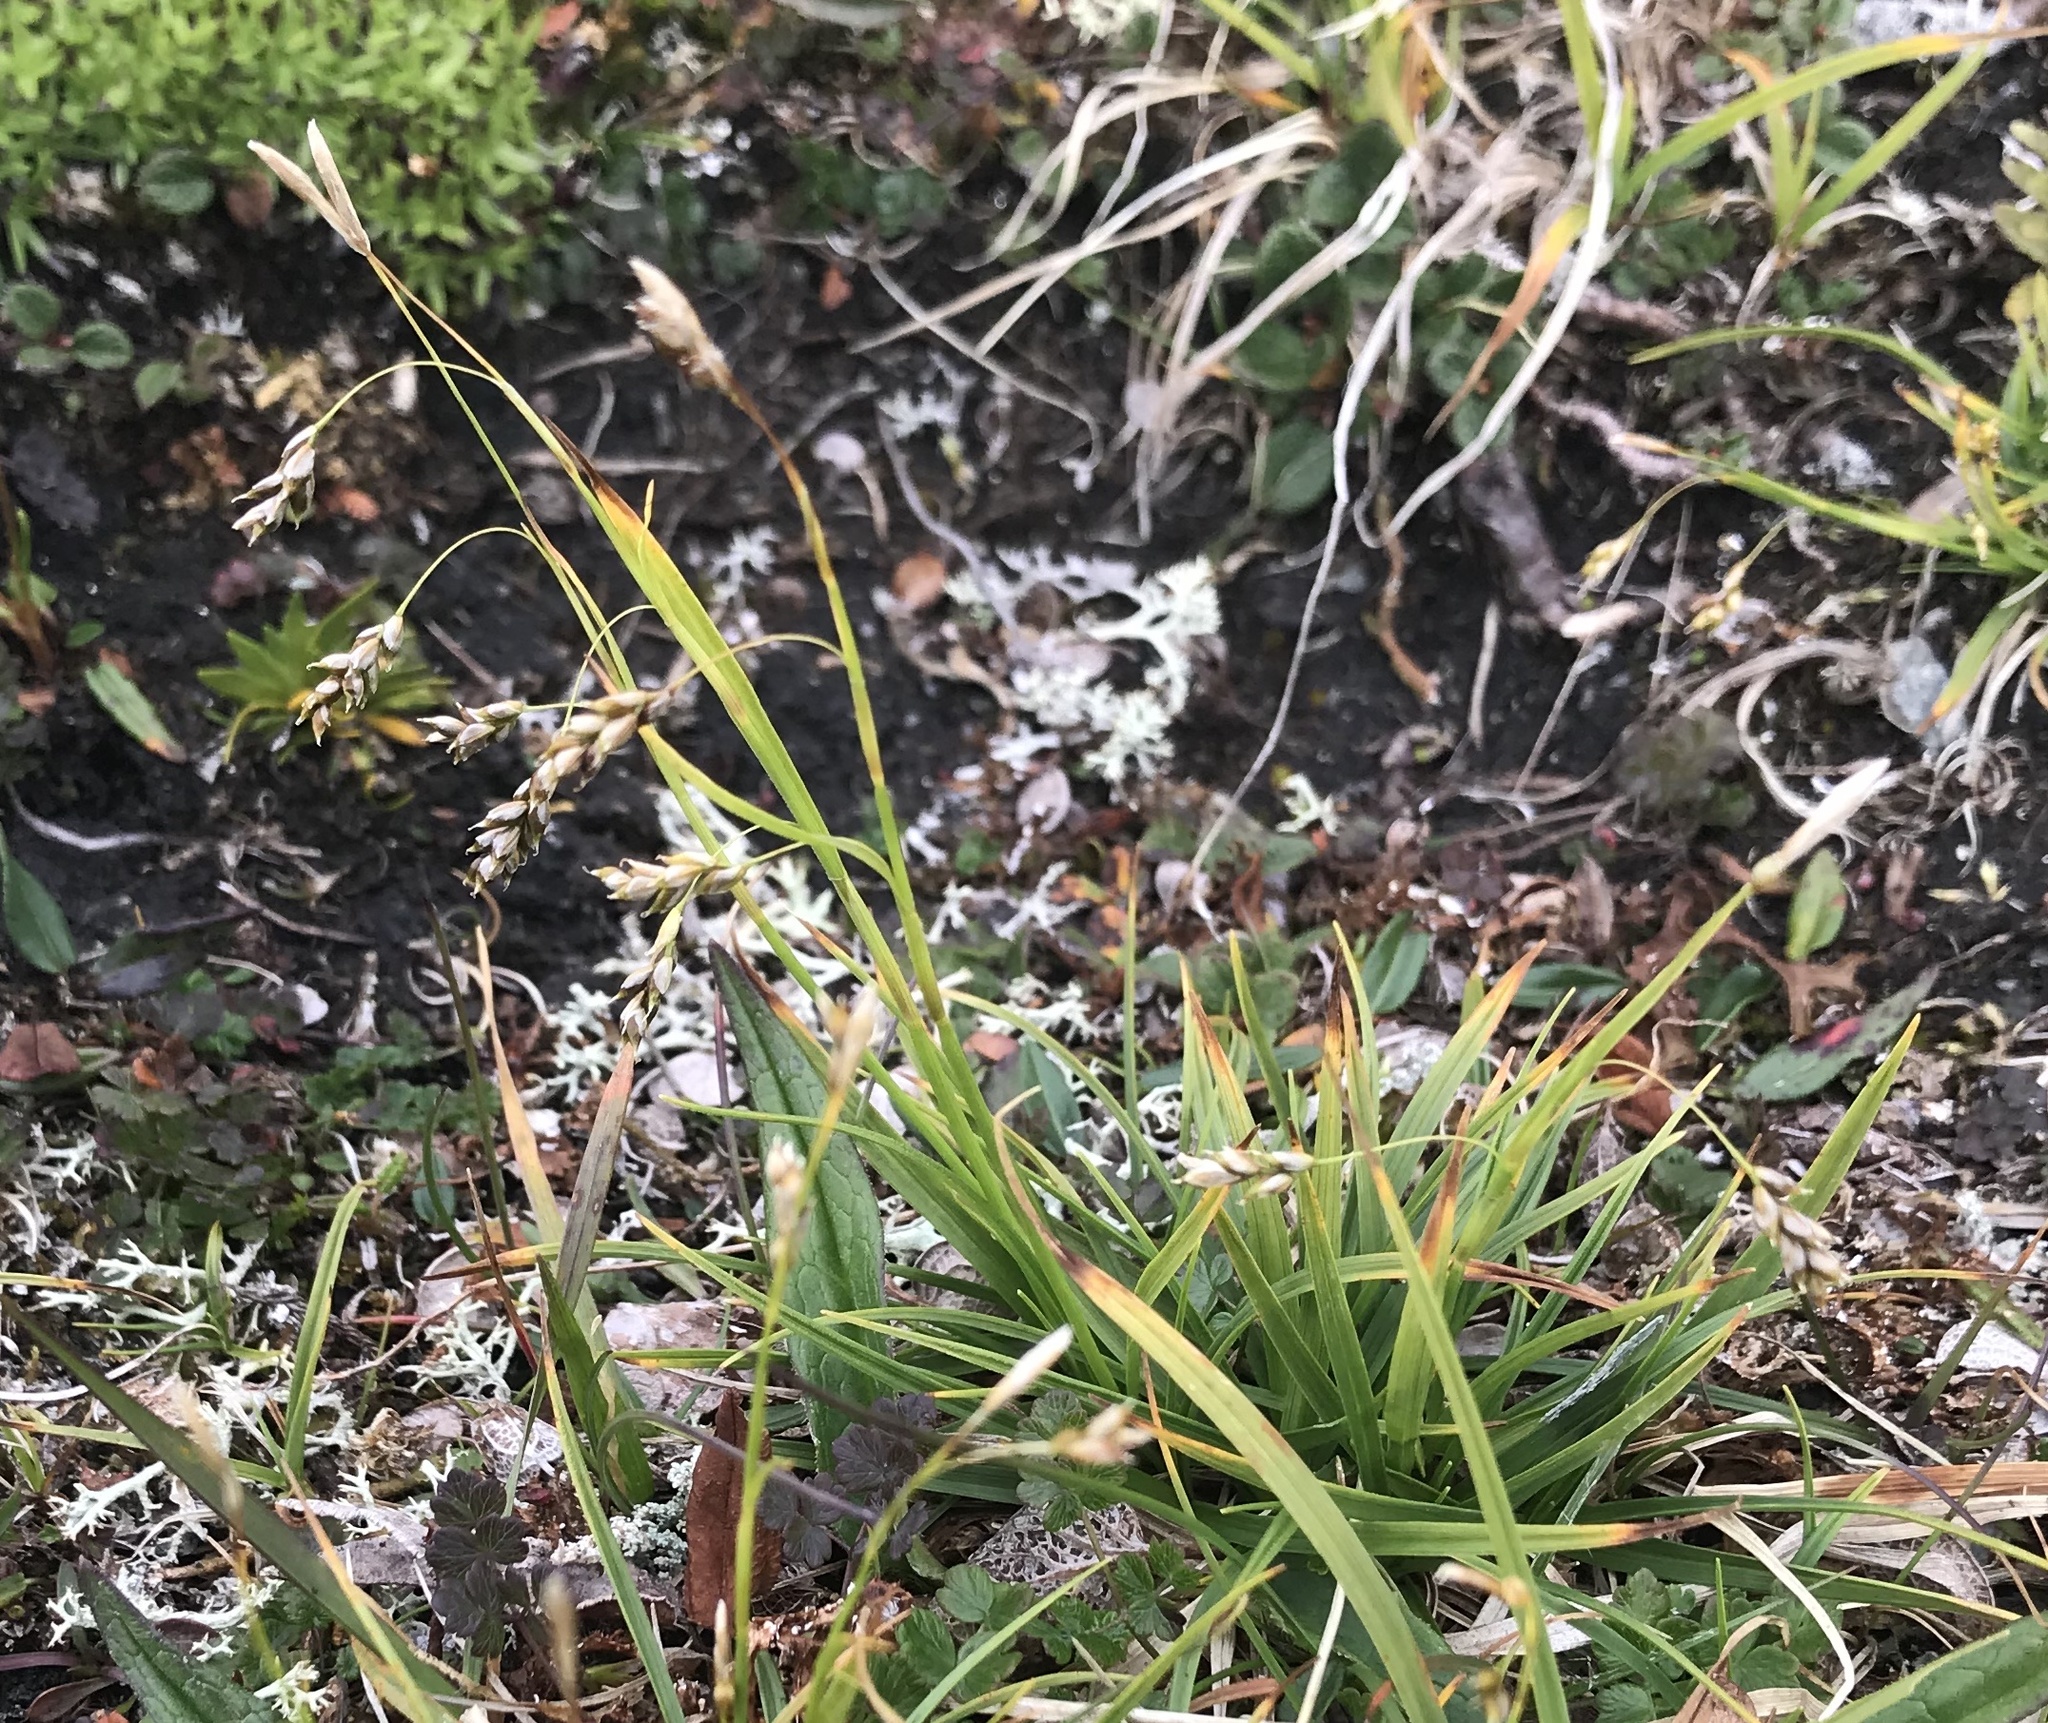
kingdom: Plantae
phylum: Tracheophyta
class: Liliopsida
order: Poales
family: Cyperaceae
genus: Carex
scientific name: Carex capillaris
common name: Hair sedge
